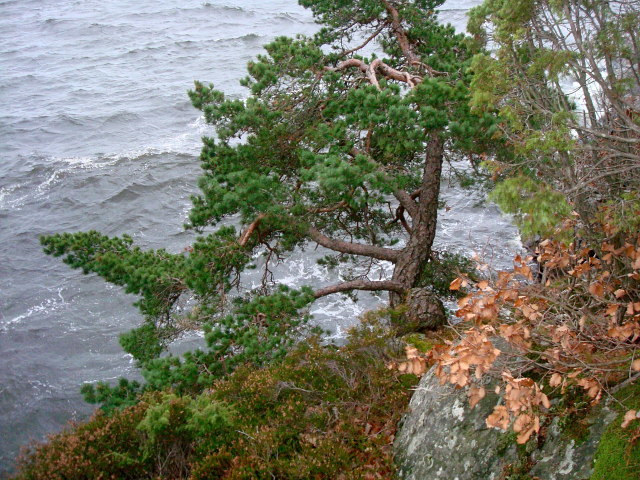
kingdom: Plantae
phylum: Tracheophyta
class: Pinopsida
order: Pinales
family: Pinaceae
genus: Pinus
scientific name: Pinus sylvestris
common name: Scots pine
